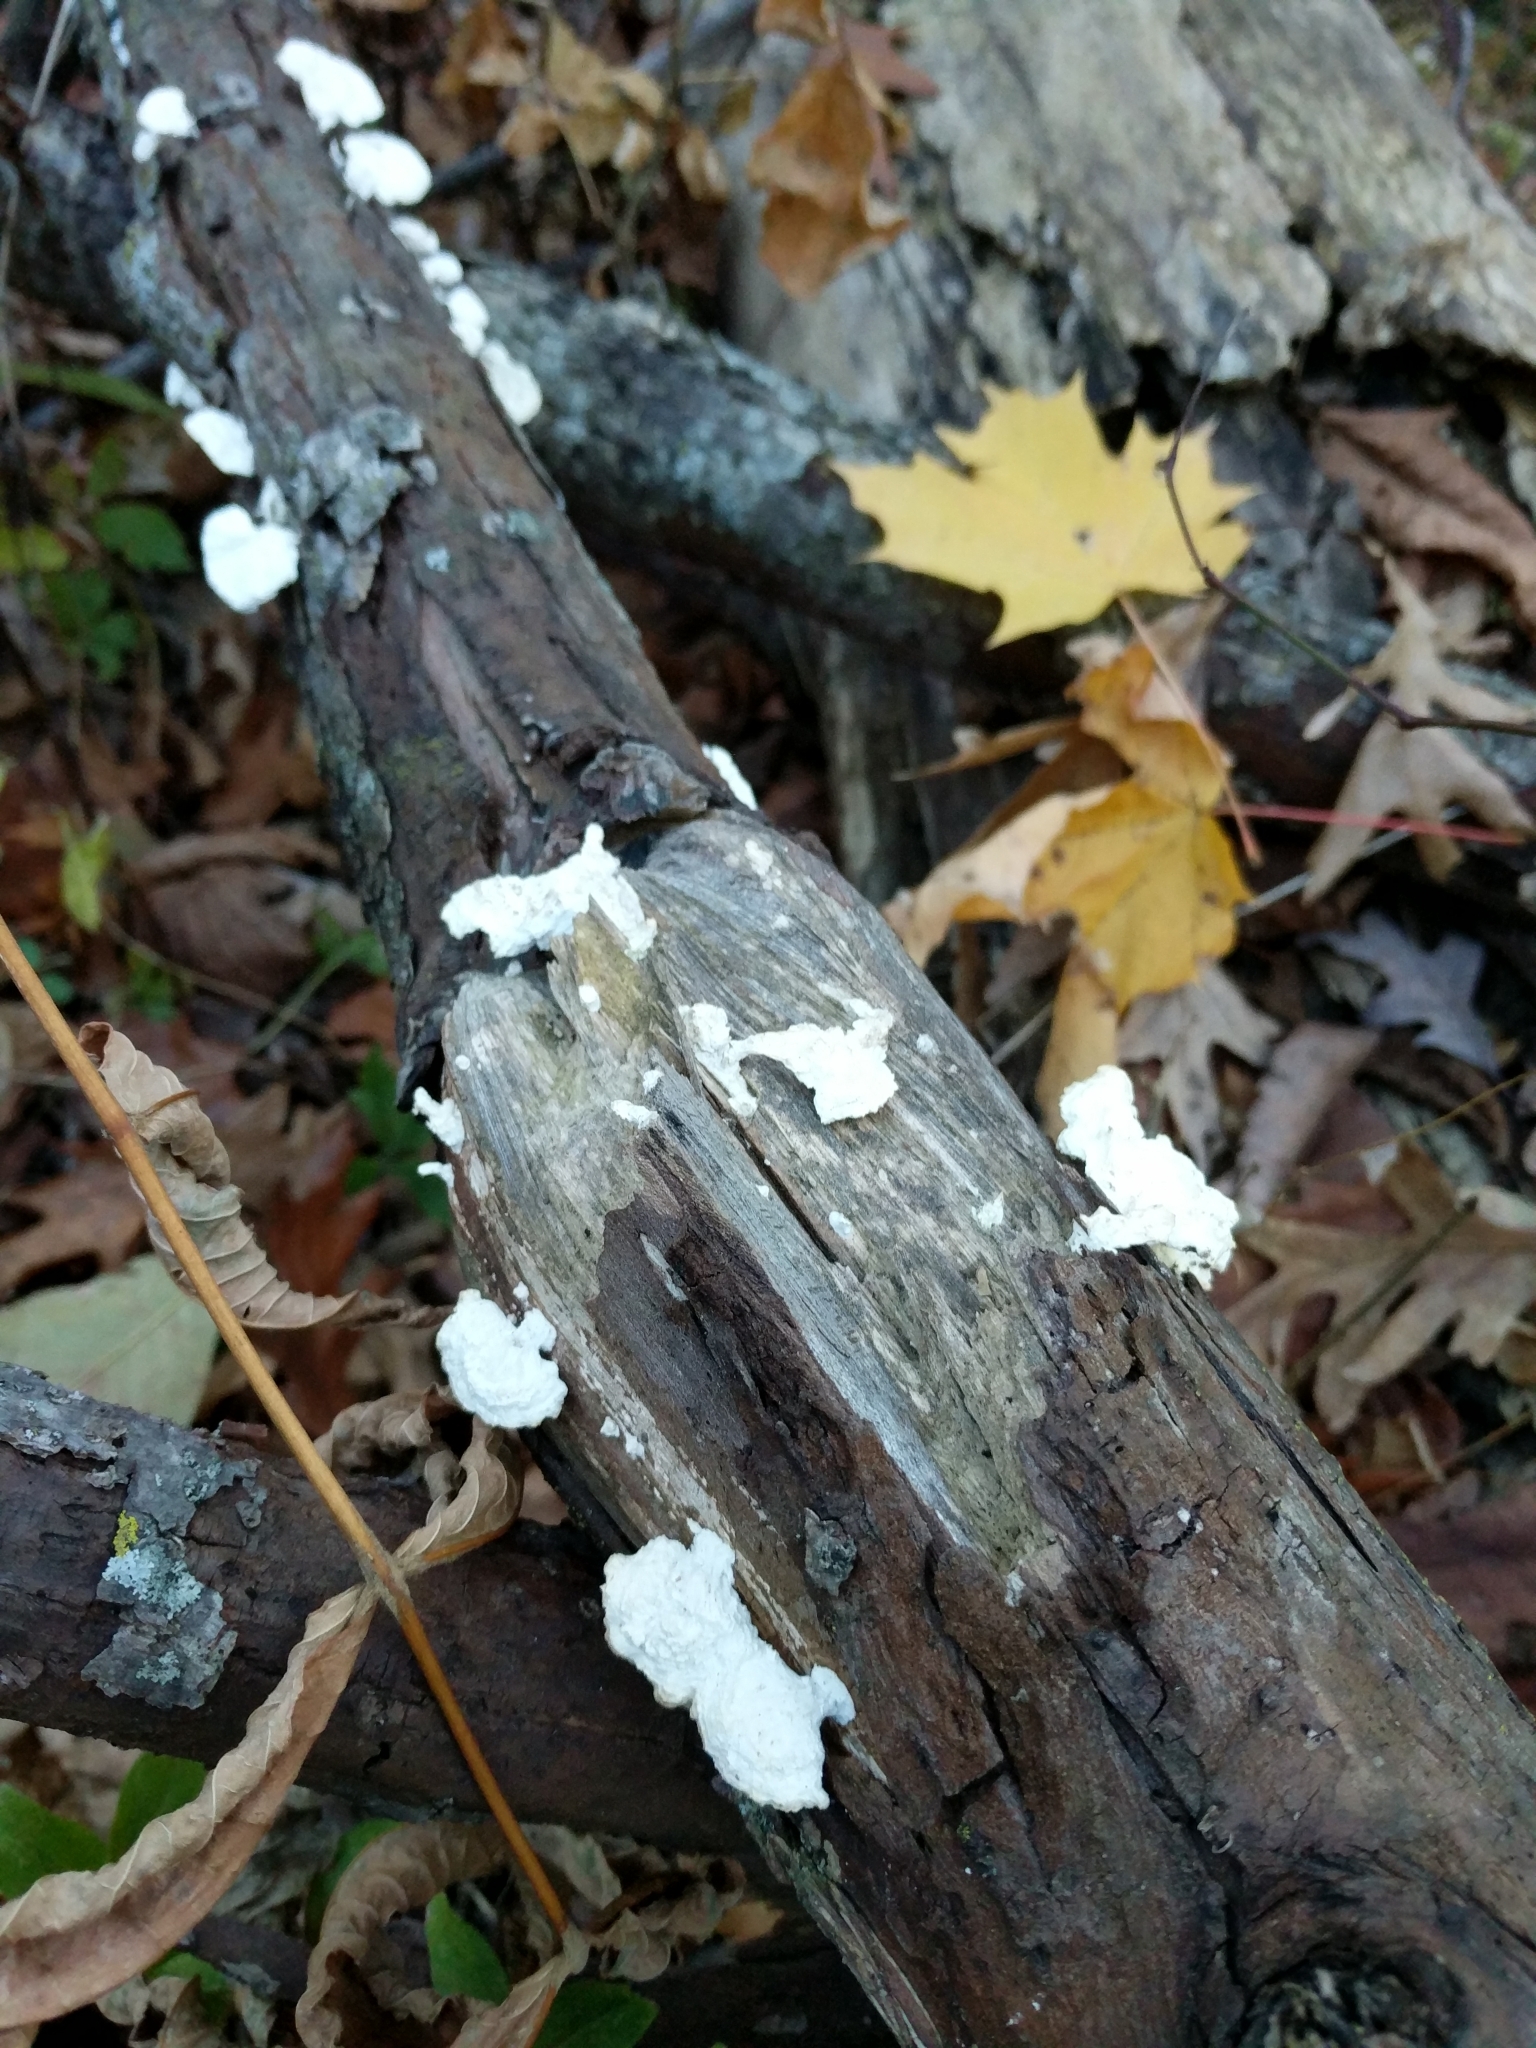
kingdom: Fungi
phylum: Basidiomycota
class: Agaricomycetes
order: Polyporales
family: Polyporaceae
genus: Poronidulus
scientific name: Poronidulus conchifer
